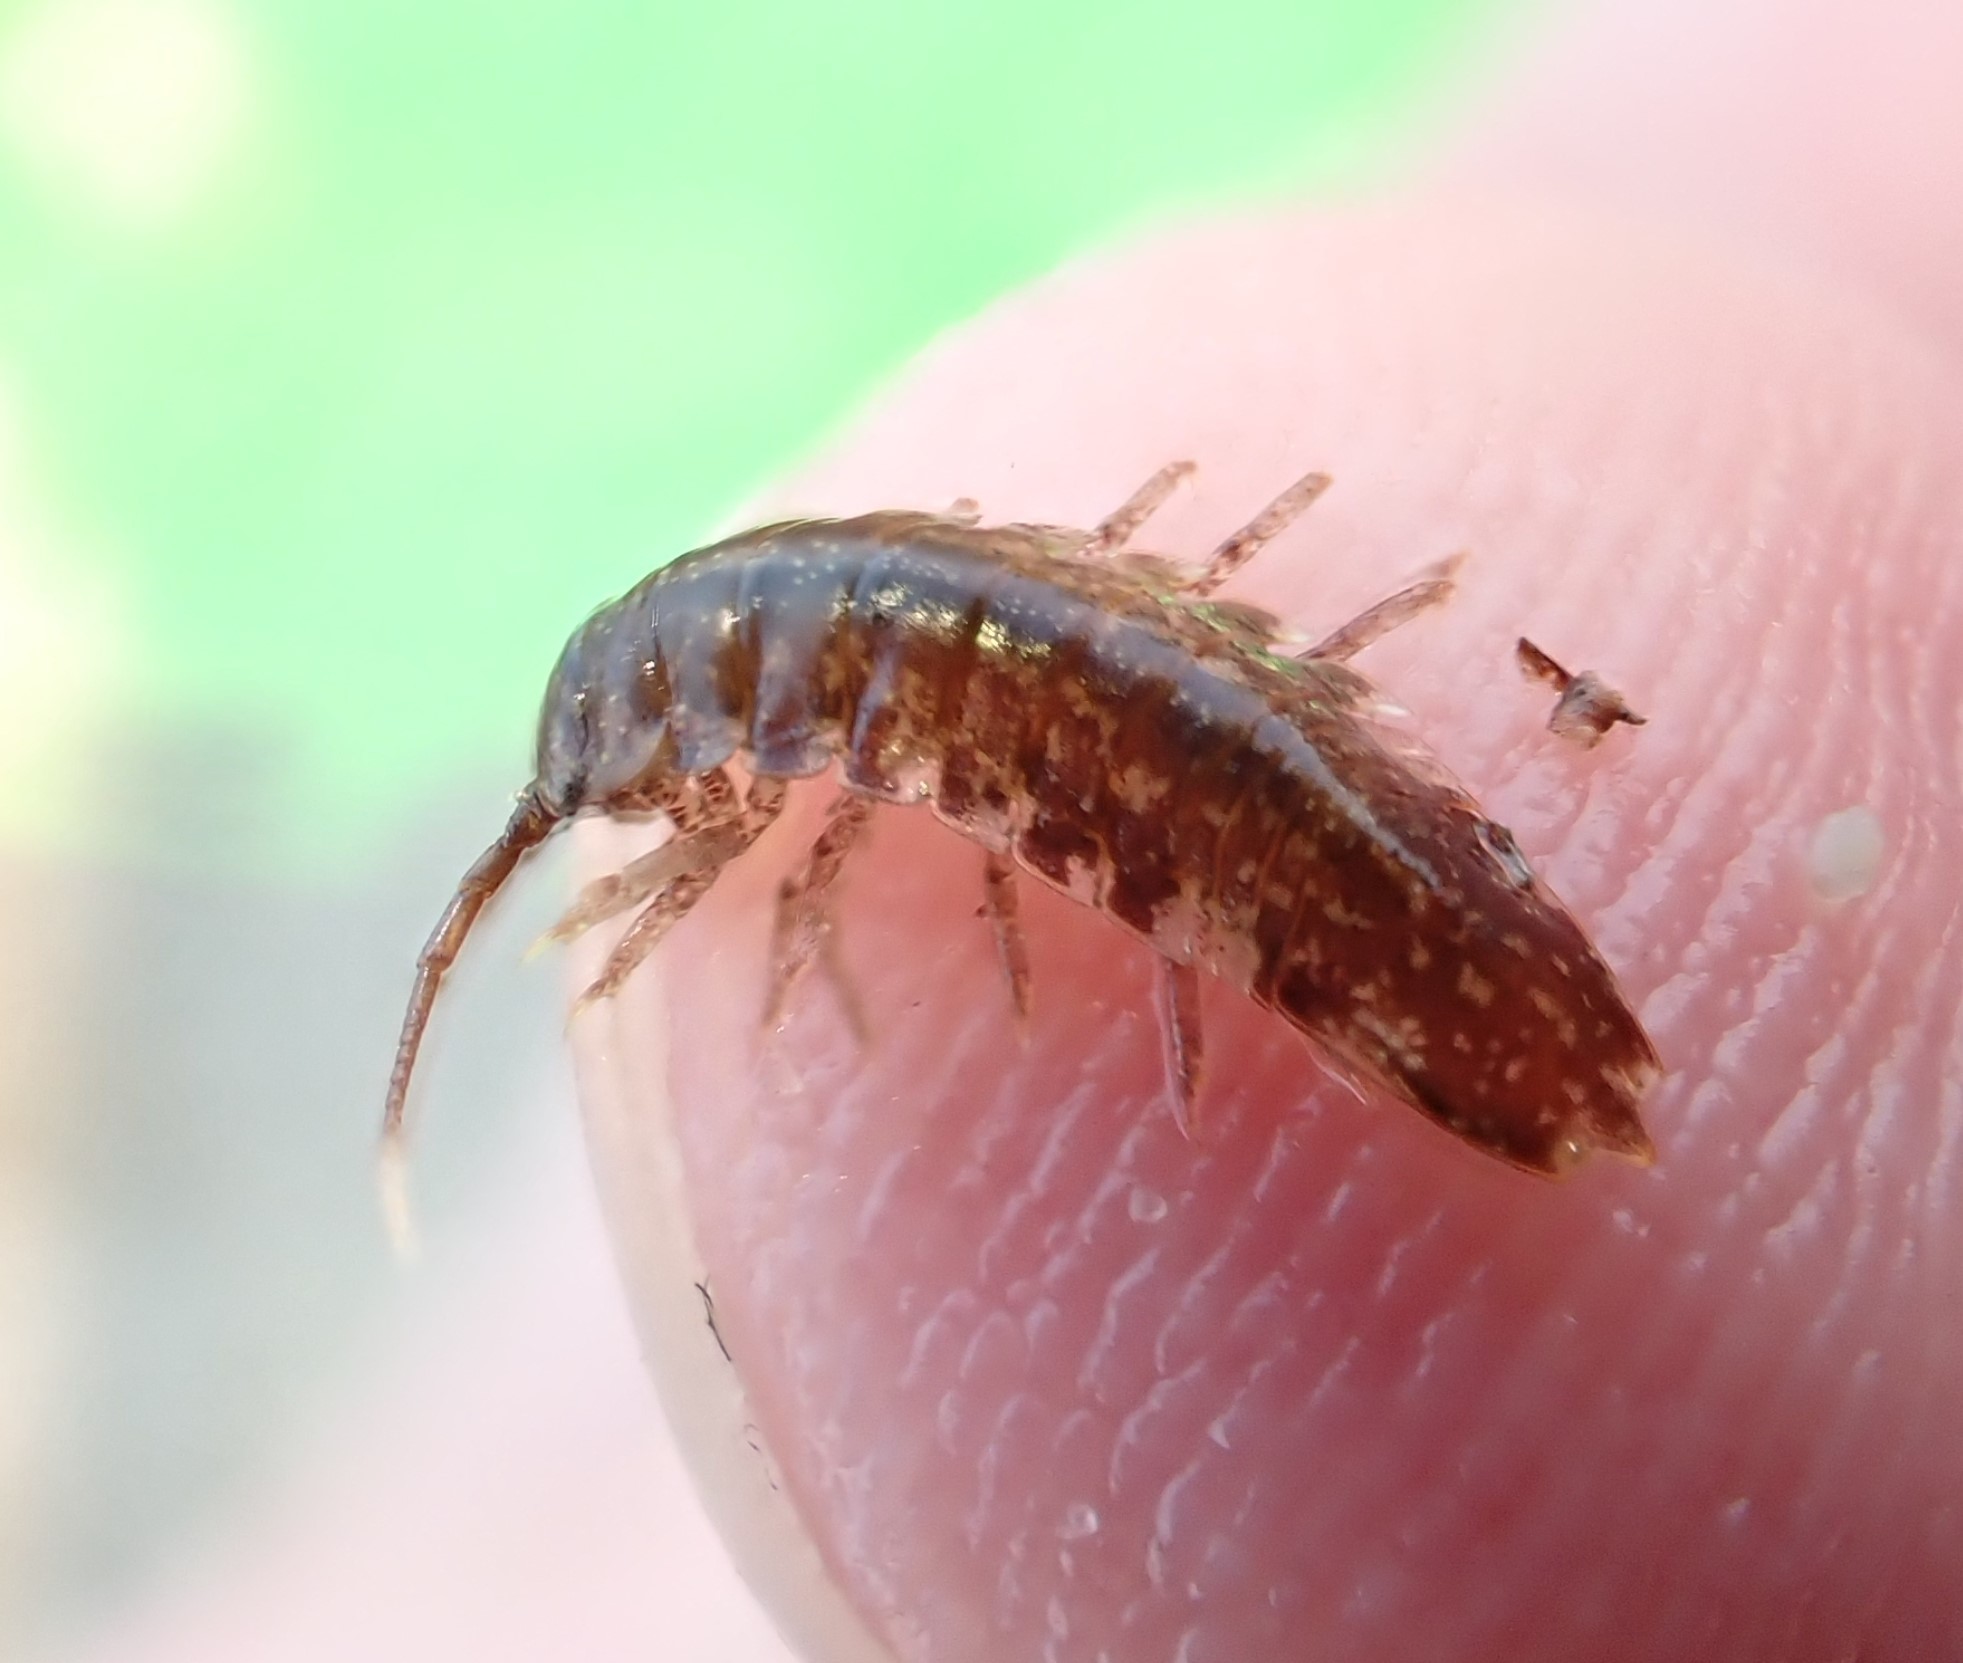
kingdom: Animalia
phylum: Arthropoda
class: Malacostraca
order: Isopoda
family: Idoteidae
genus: Idotea
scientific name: Idotea balthica
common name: Baltic isopod
